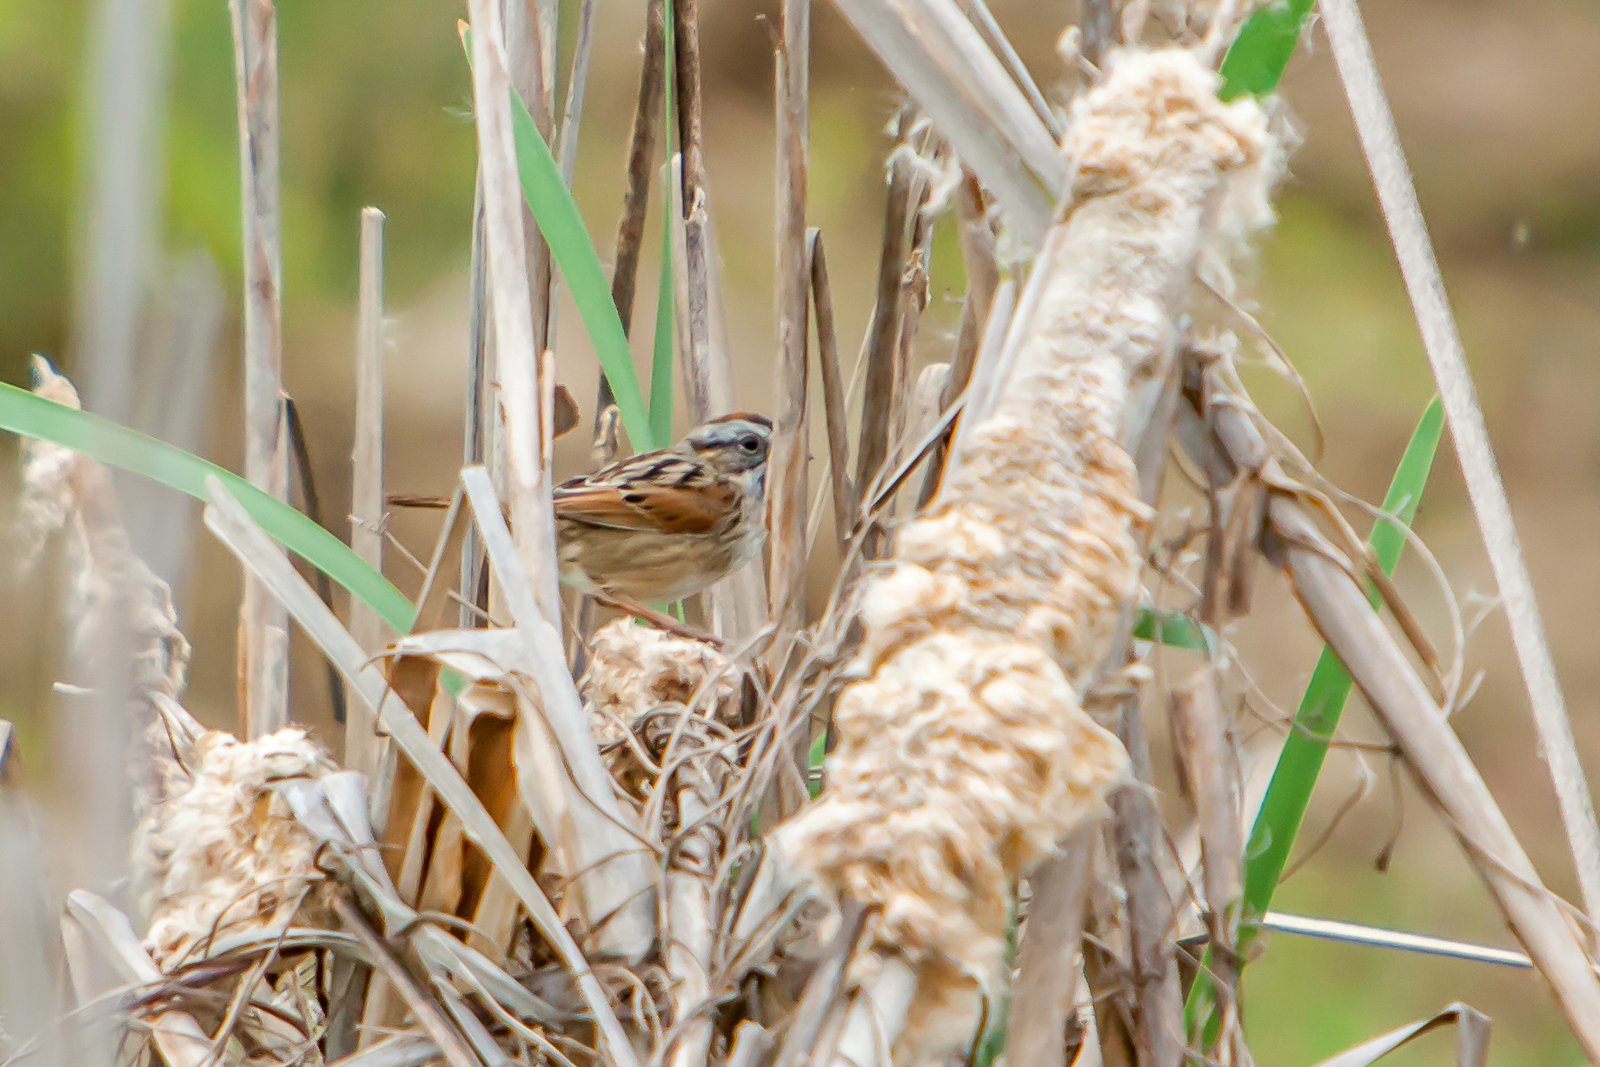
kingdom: Animalia
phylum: Chordata
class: Aves
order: Passeriformes
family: Passerellidae
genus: Melospiza
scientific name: Melospiza georgiana
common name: Swamp sparrow
